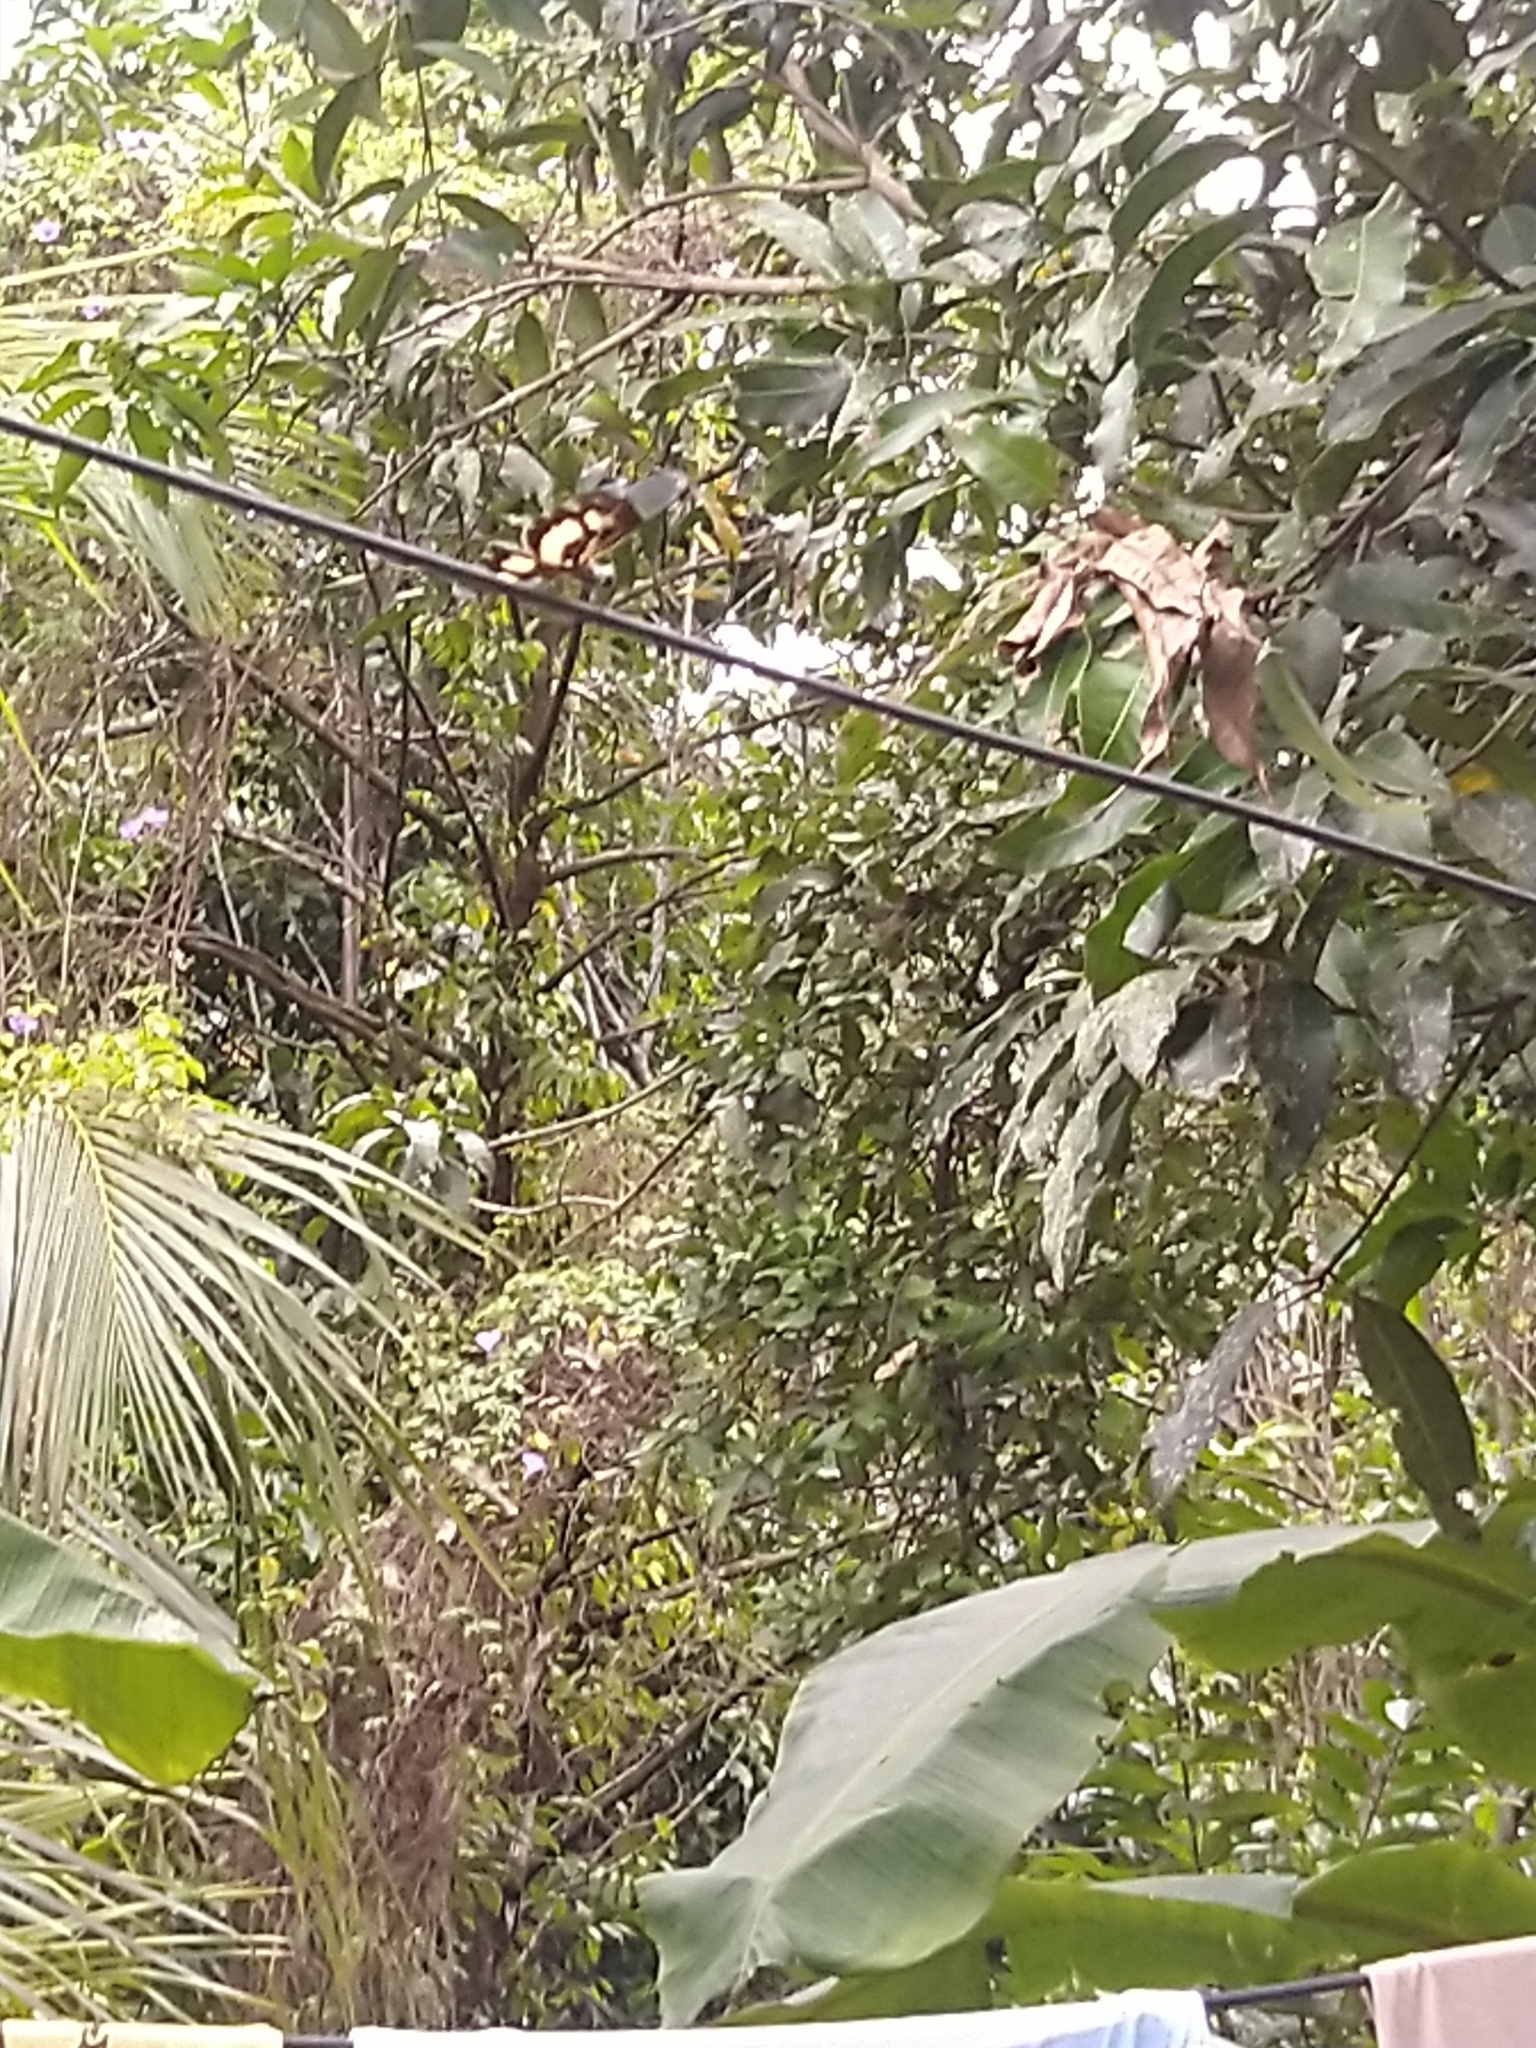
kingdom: Animalia
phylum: Arthropoda
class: Insecta
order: Odonata
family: Libellulidae
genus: Rhyothemis
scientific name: Rhyothemis variegata
